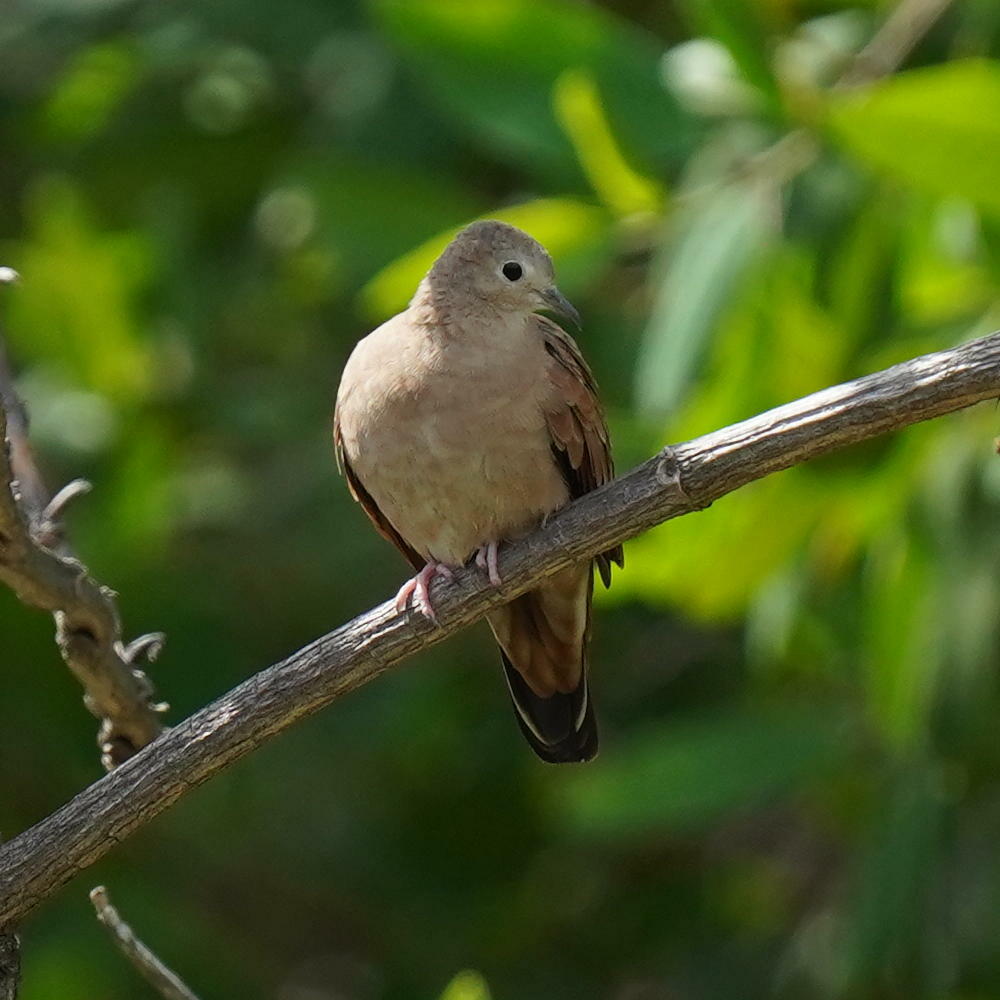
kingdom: Animalia
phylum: Chordata
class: Aves
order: Columbiformes
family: Columbidae
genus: Columbina
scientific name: Columbina talpacoti
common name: Ruddy ground dove
